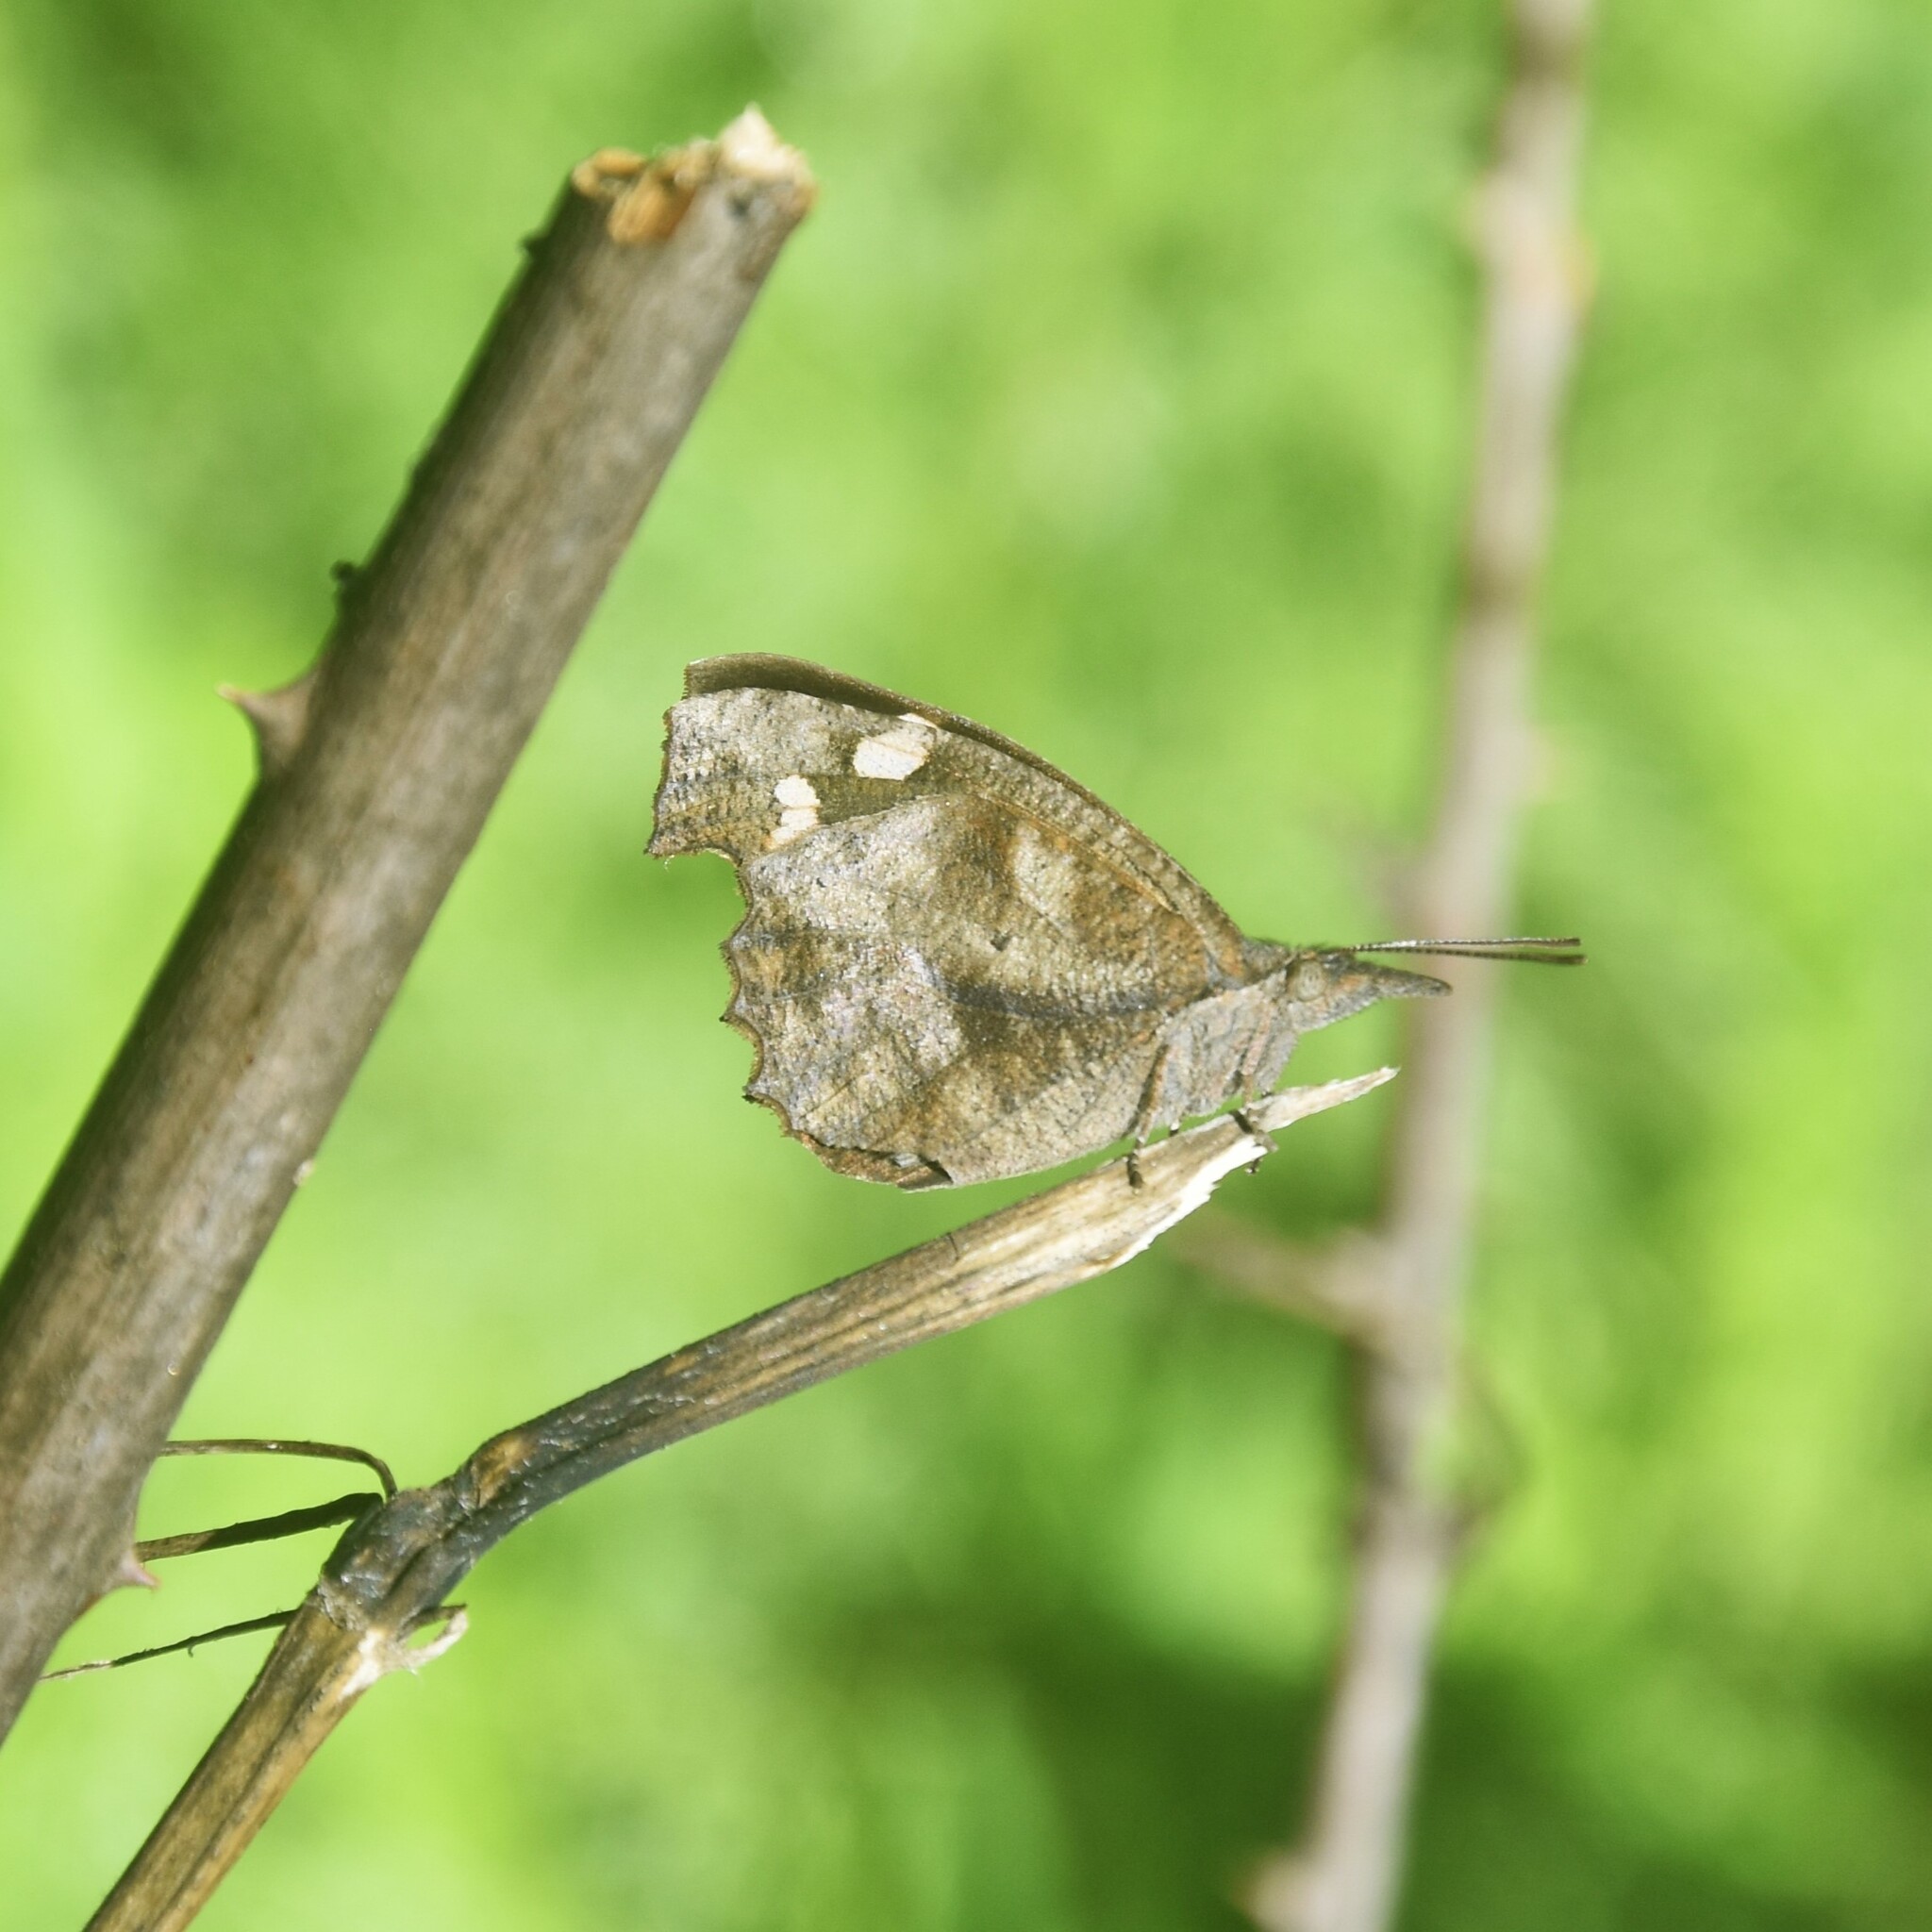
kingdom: Animalia
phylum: Arthropoda
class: Insecta
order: Lepidoptera
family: Nymphalidae
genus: Libythea
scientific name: Libythea lepita
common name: Common beak
